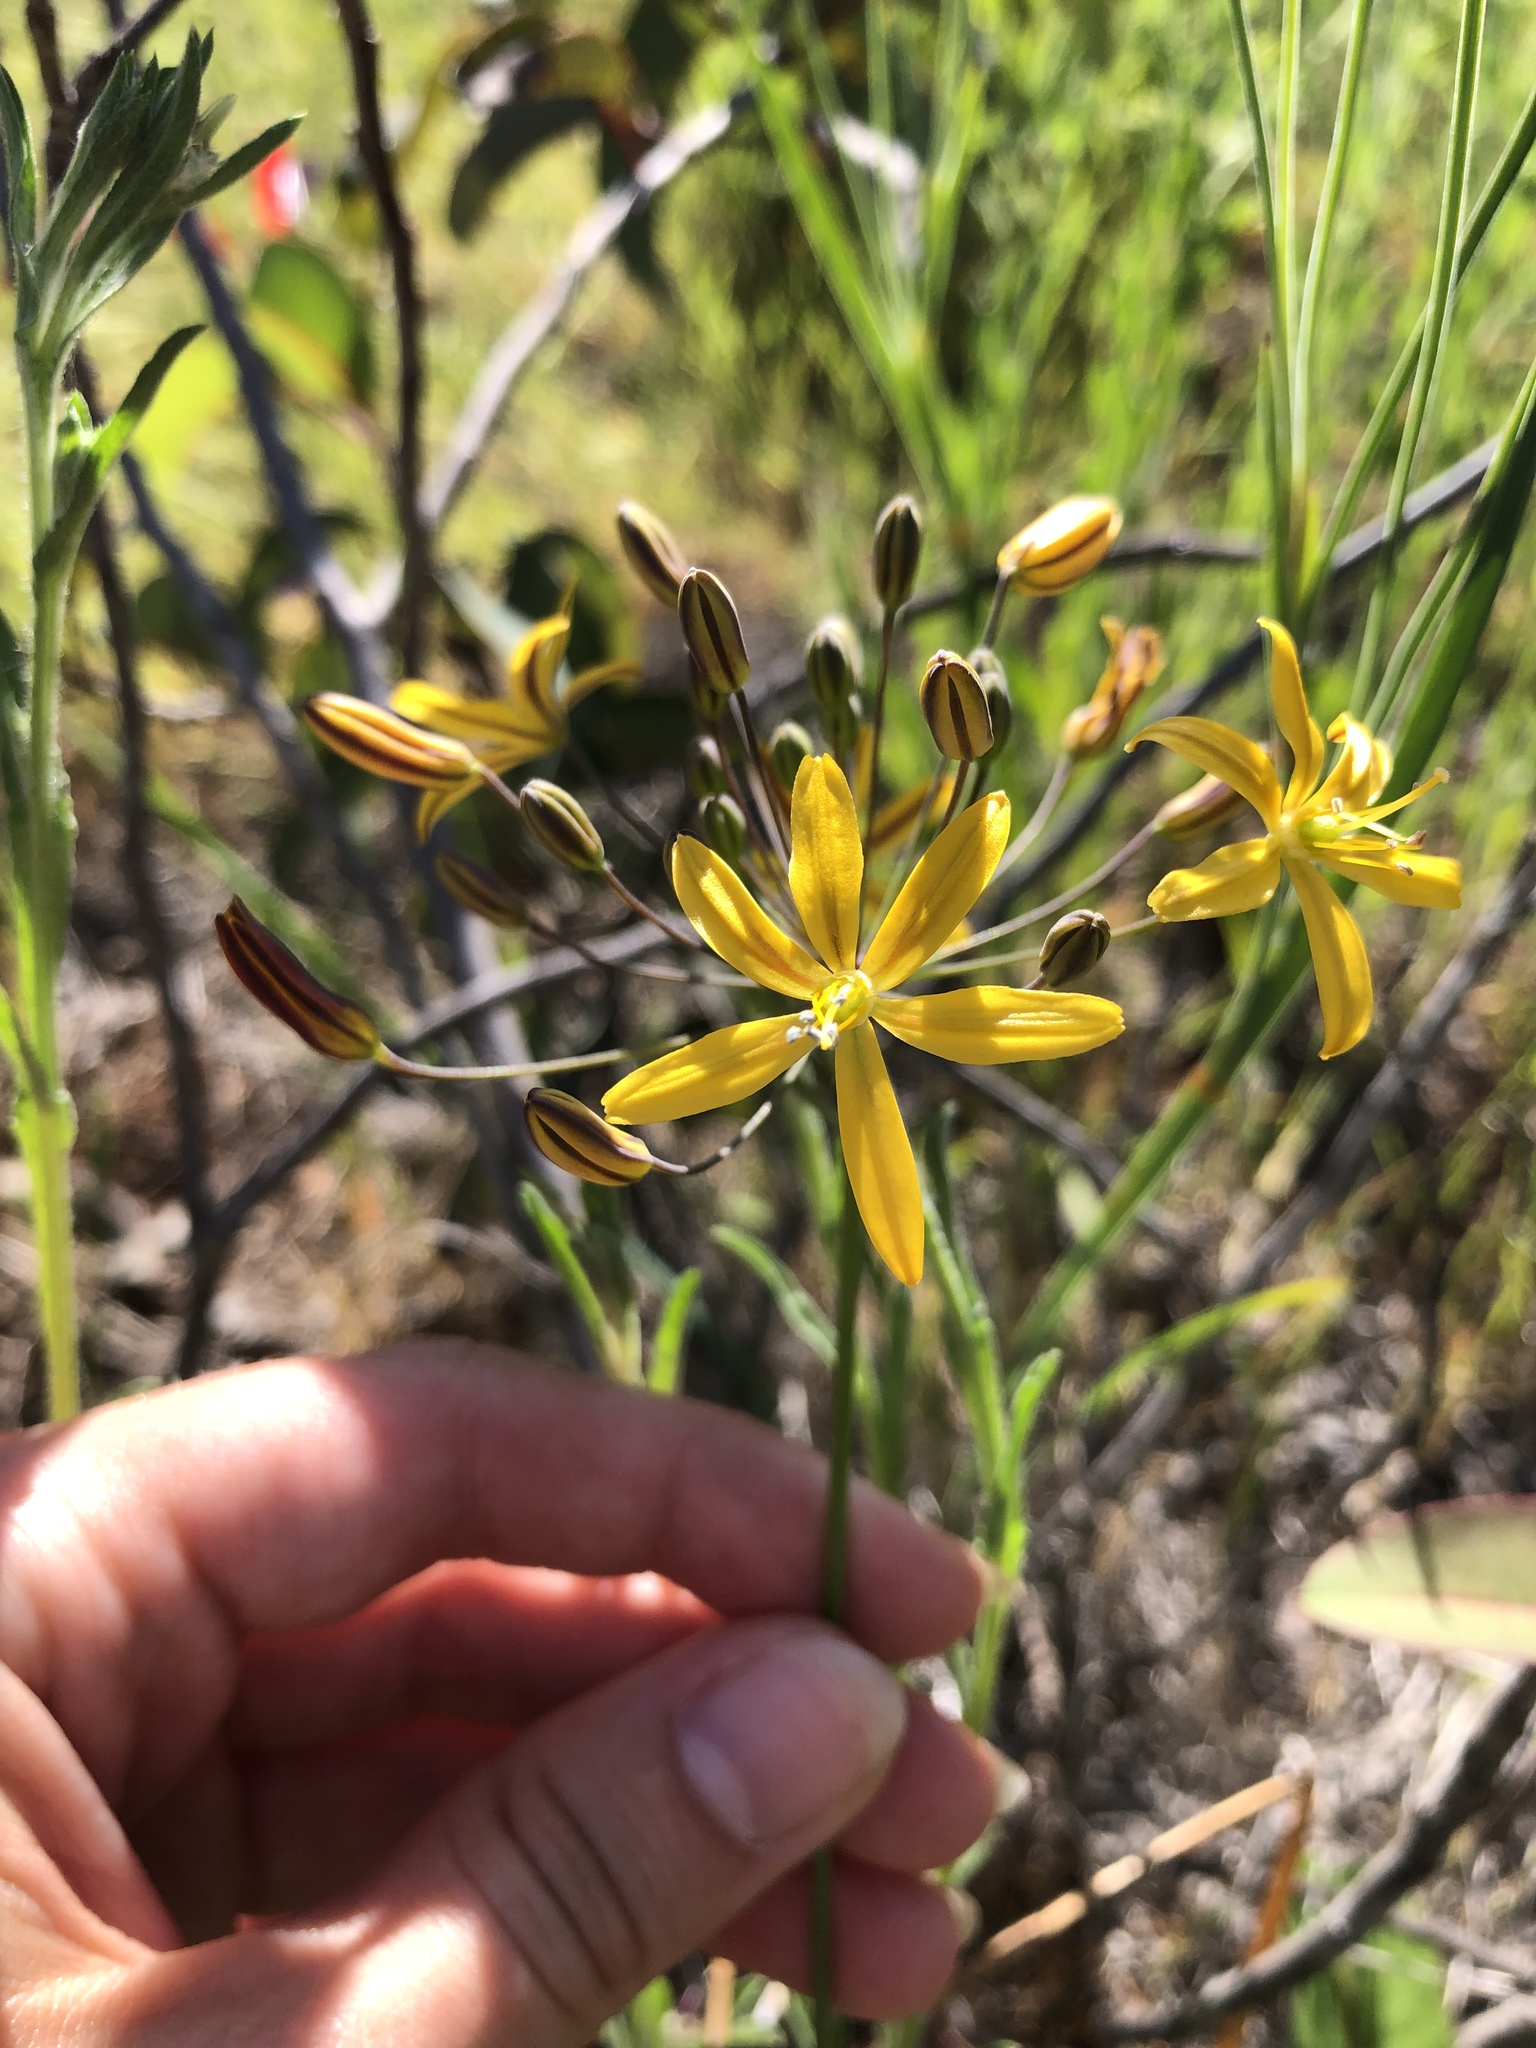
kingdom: Plantae
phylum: Tracheophyta
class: Liliopsida
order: Asparagales
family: Asparagaceae
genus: Bloomeria
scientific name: Bloomeria crocea
